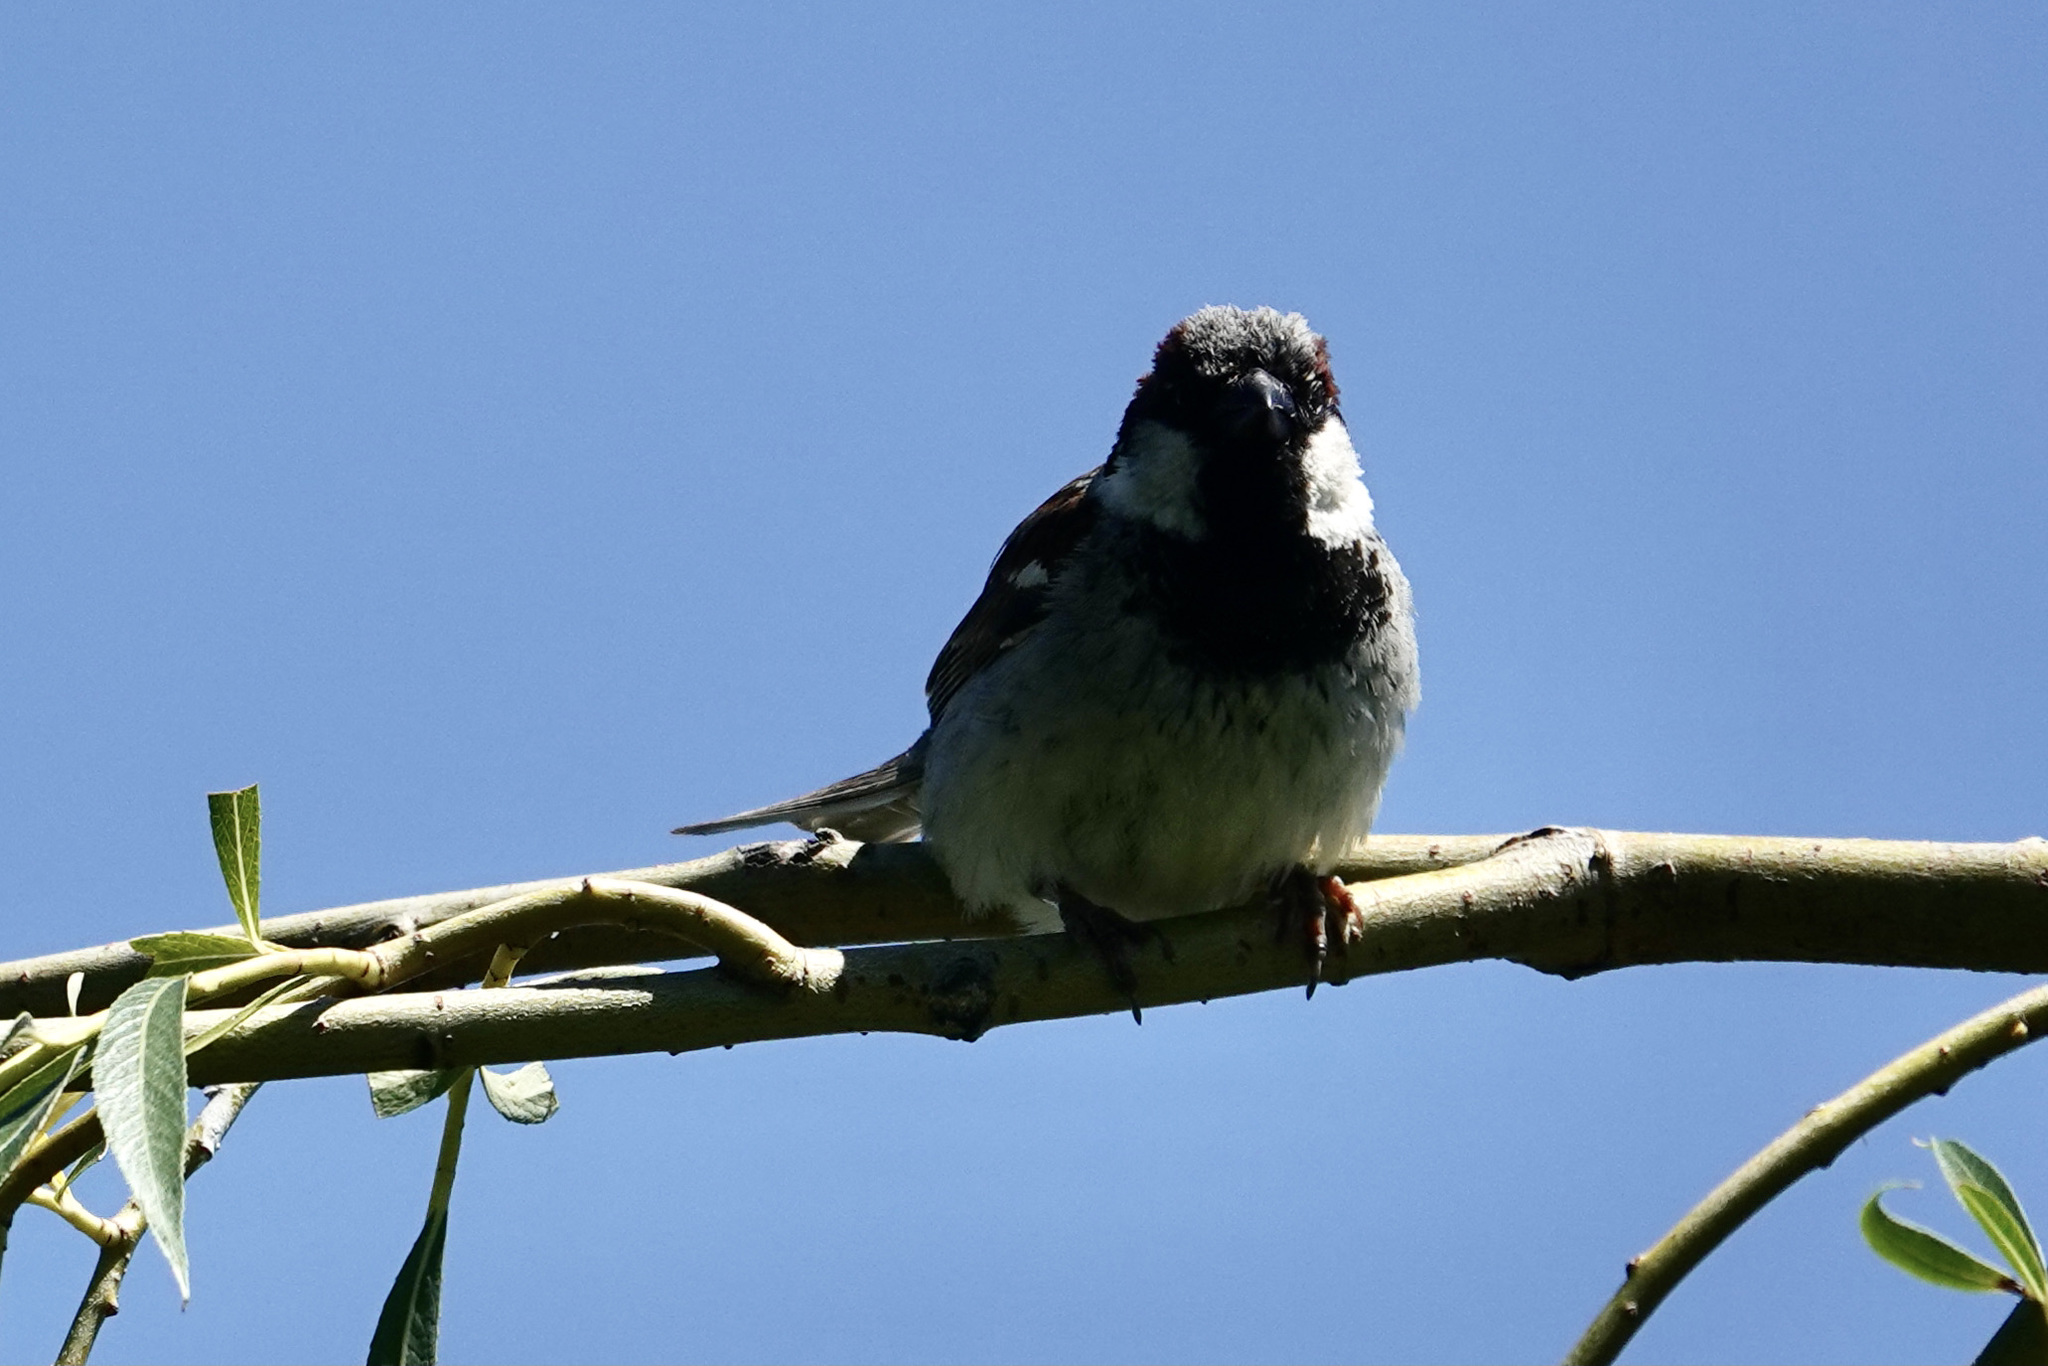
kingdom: Animalia
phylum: Chordata
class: Aves
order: Passeriformes
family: Passeridae
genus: Passer
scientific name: Passer domesticus
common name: House sparrow
